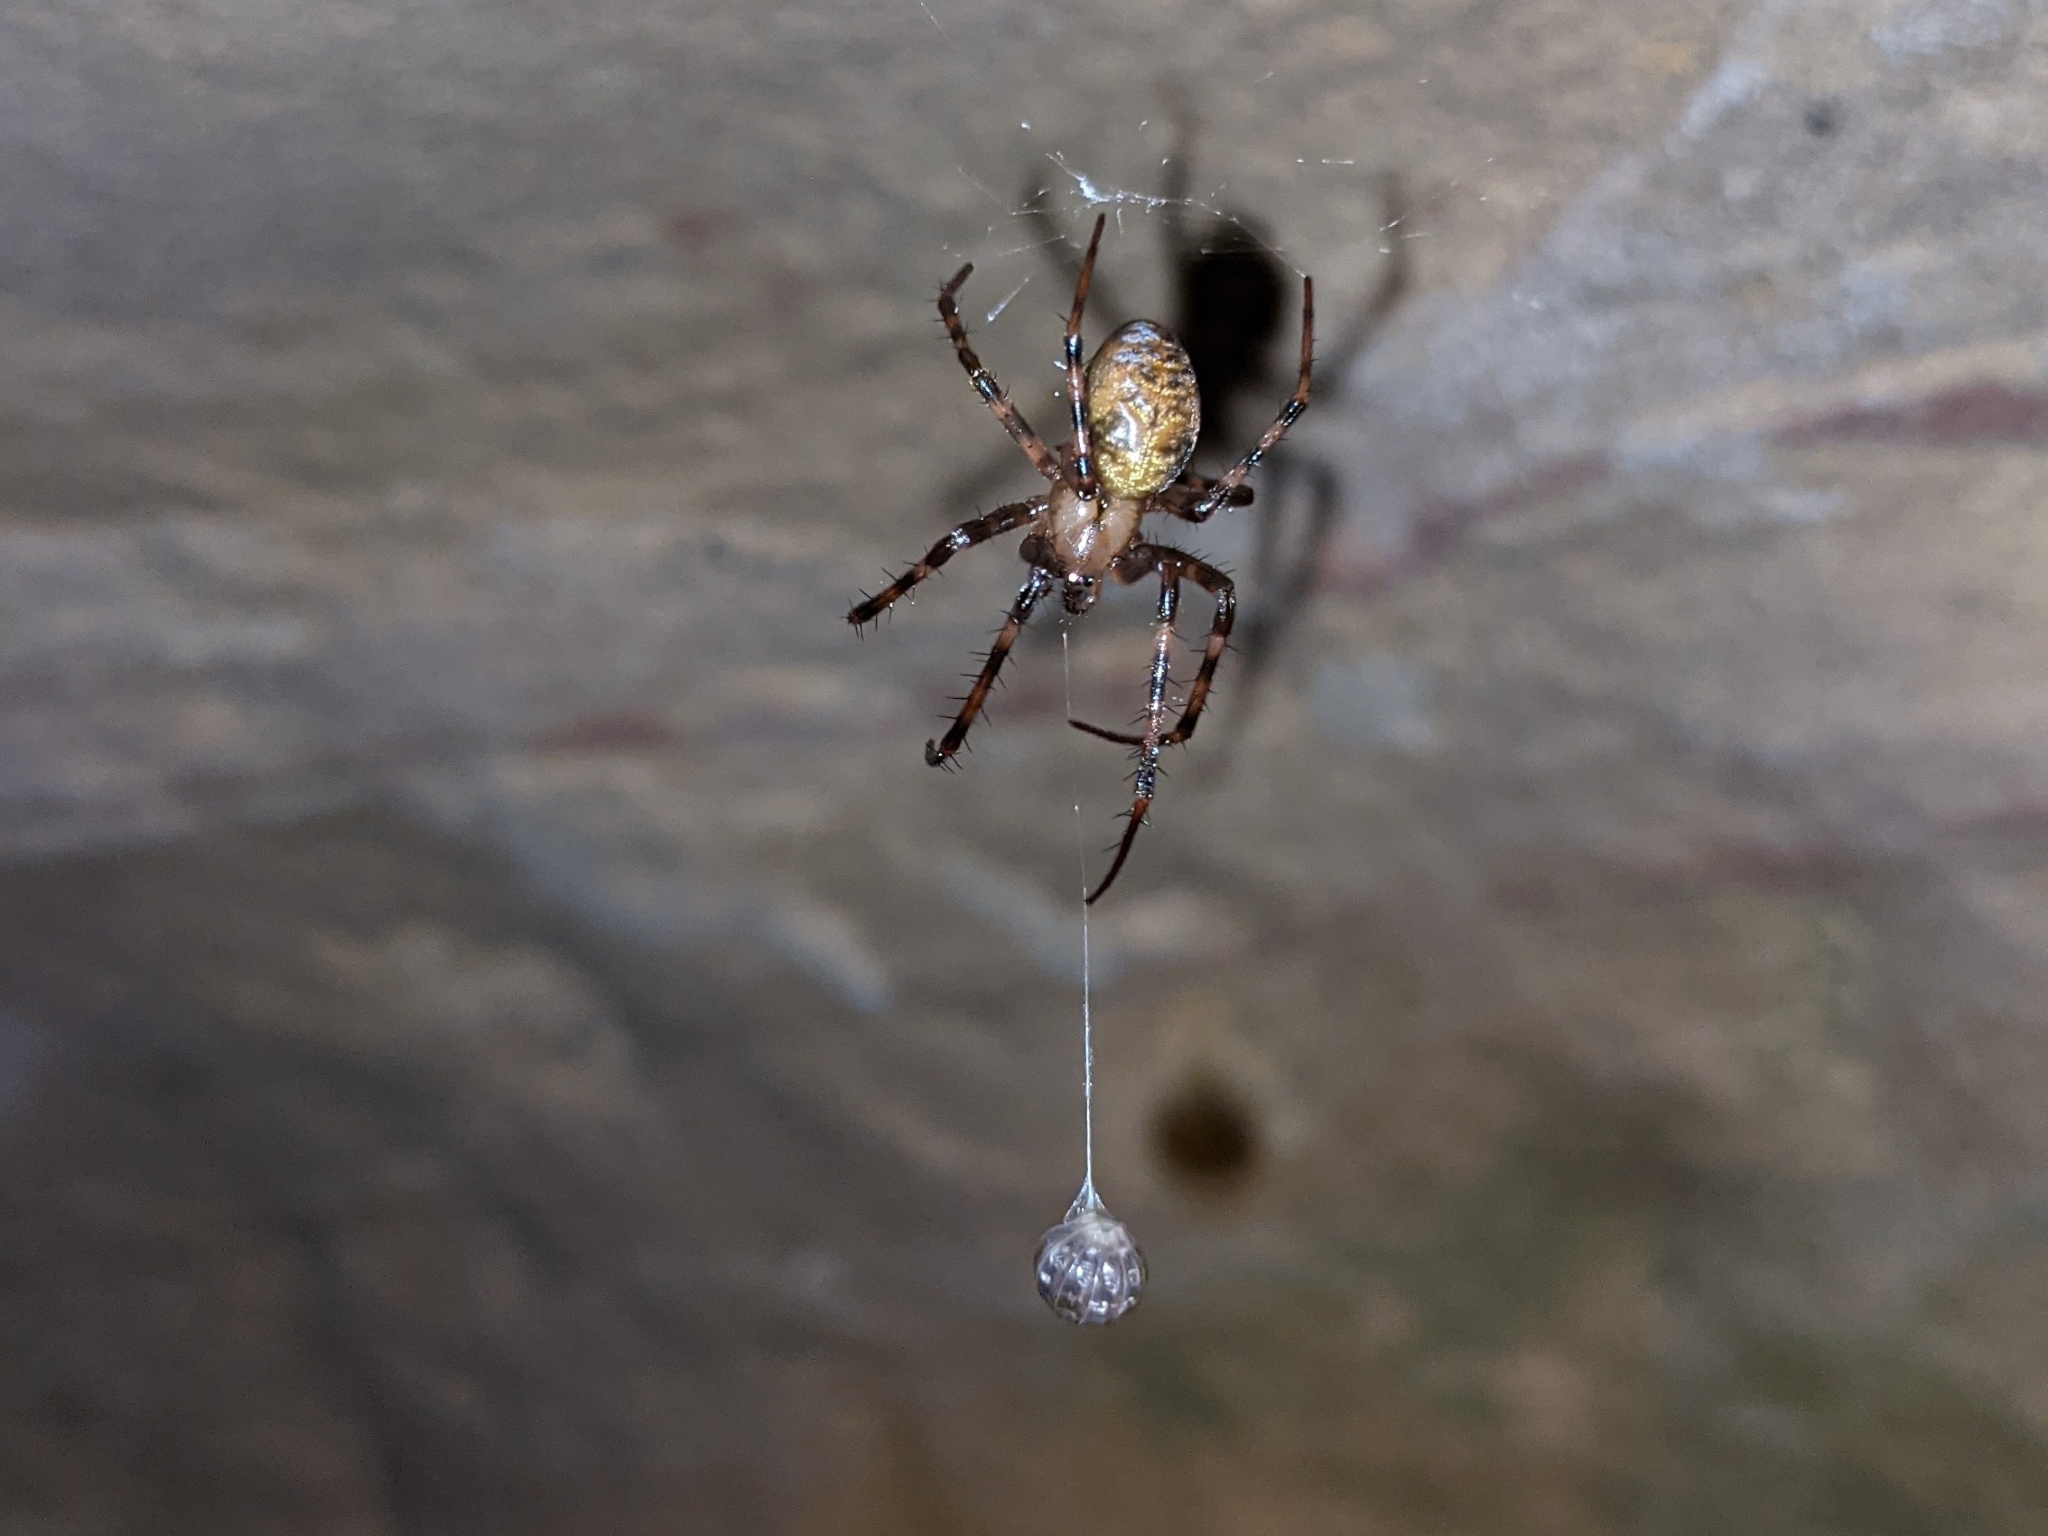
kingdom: Animalia
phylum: Arthropoda
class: Arachnida
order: Araneae
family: Tetragnathidae
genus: Meta
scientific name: Meta menardi
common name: Cave spider
